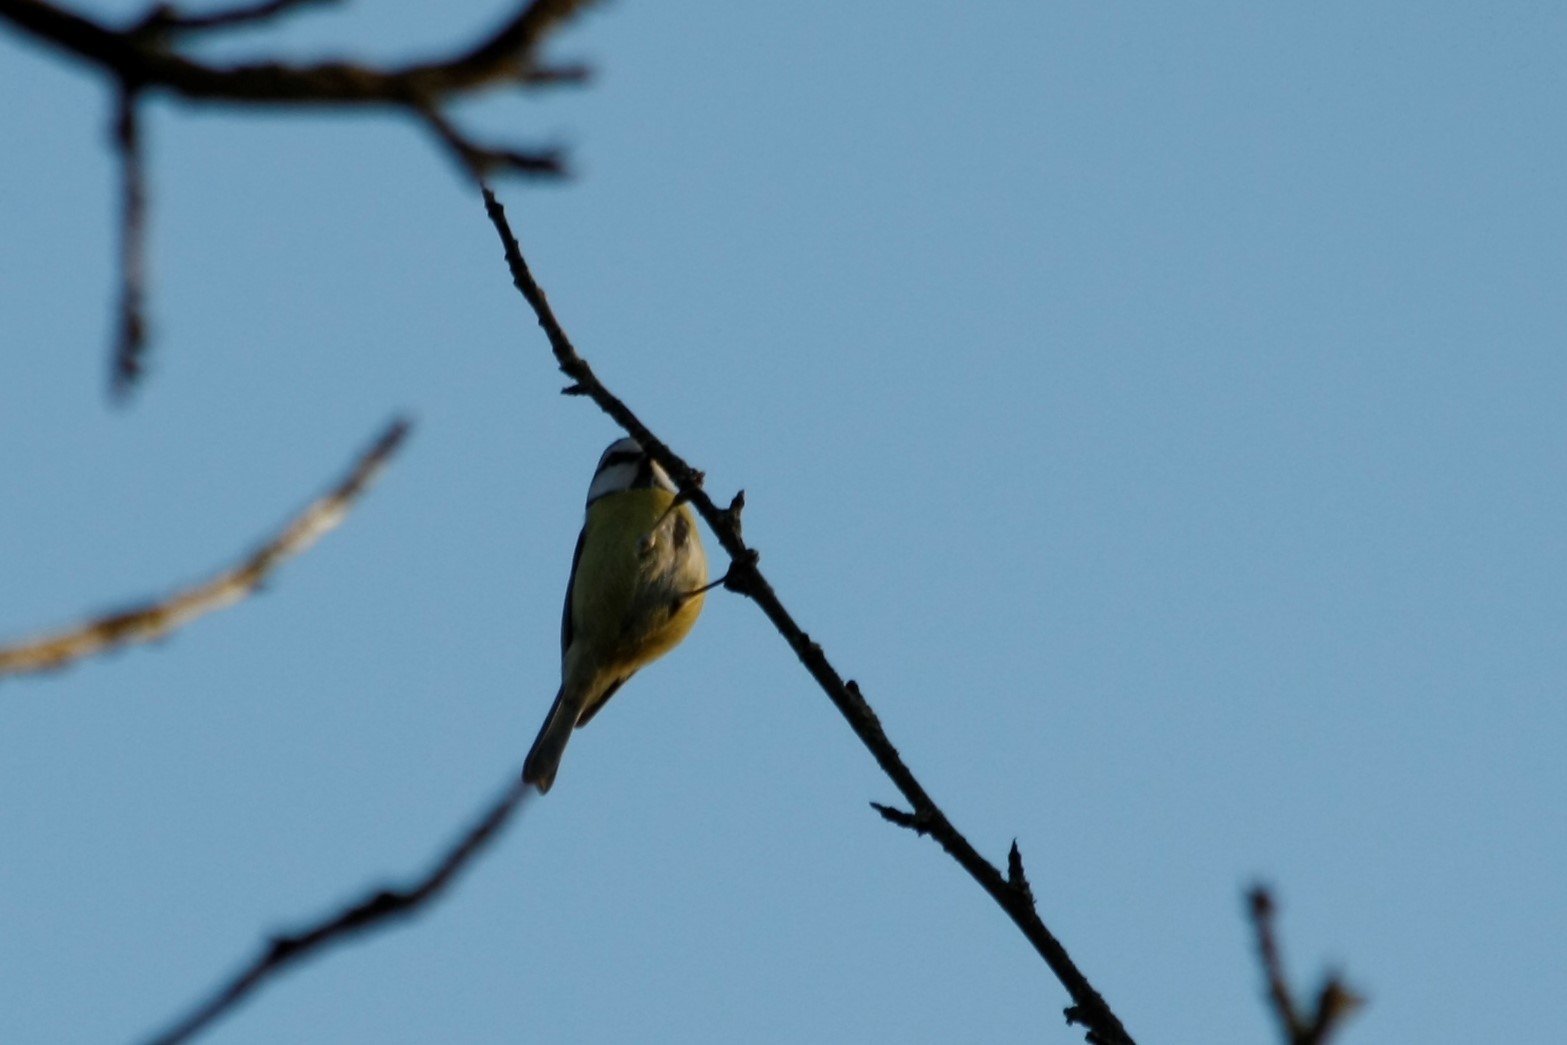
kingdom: Animalia
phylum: Chordata
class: Aves
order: Passeriformes
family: Paridae
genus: Cyanistes
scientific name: Cyanistes caeruleus
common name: Eurasian blue tit
